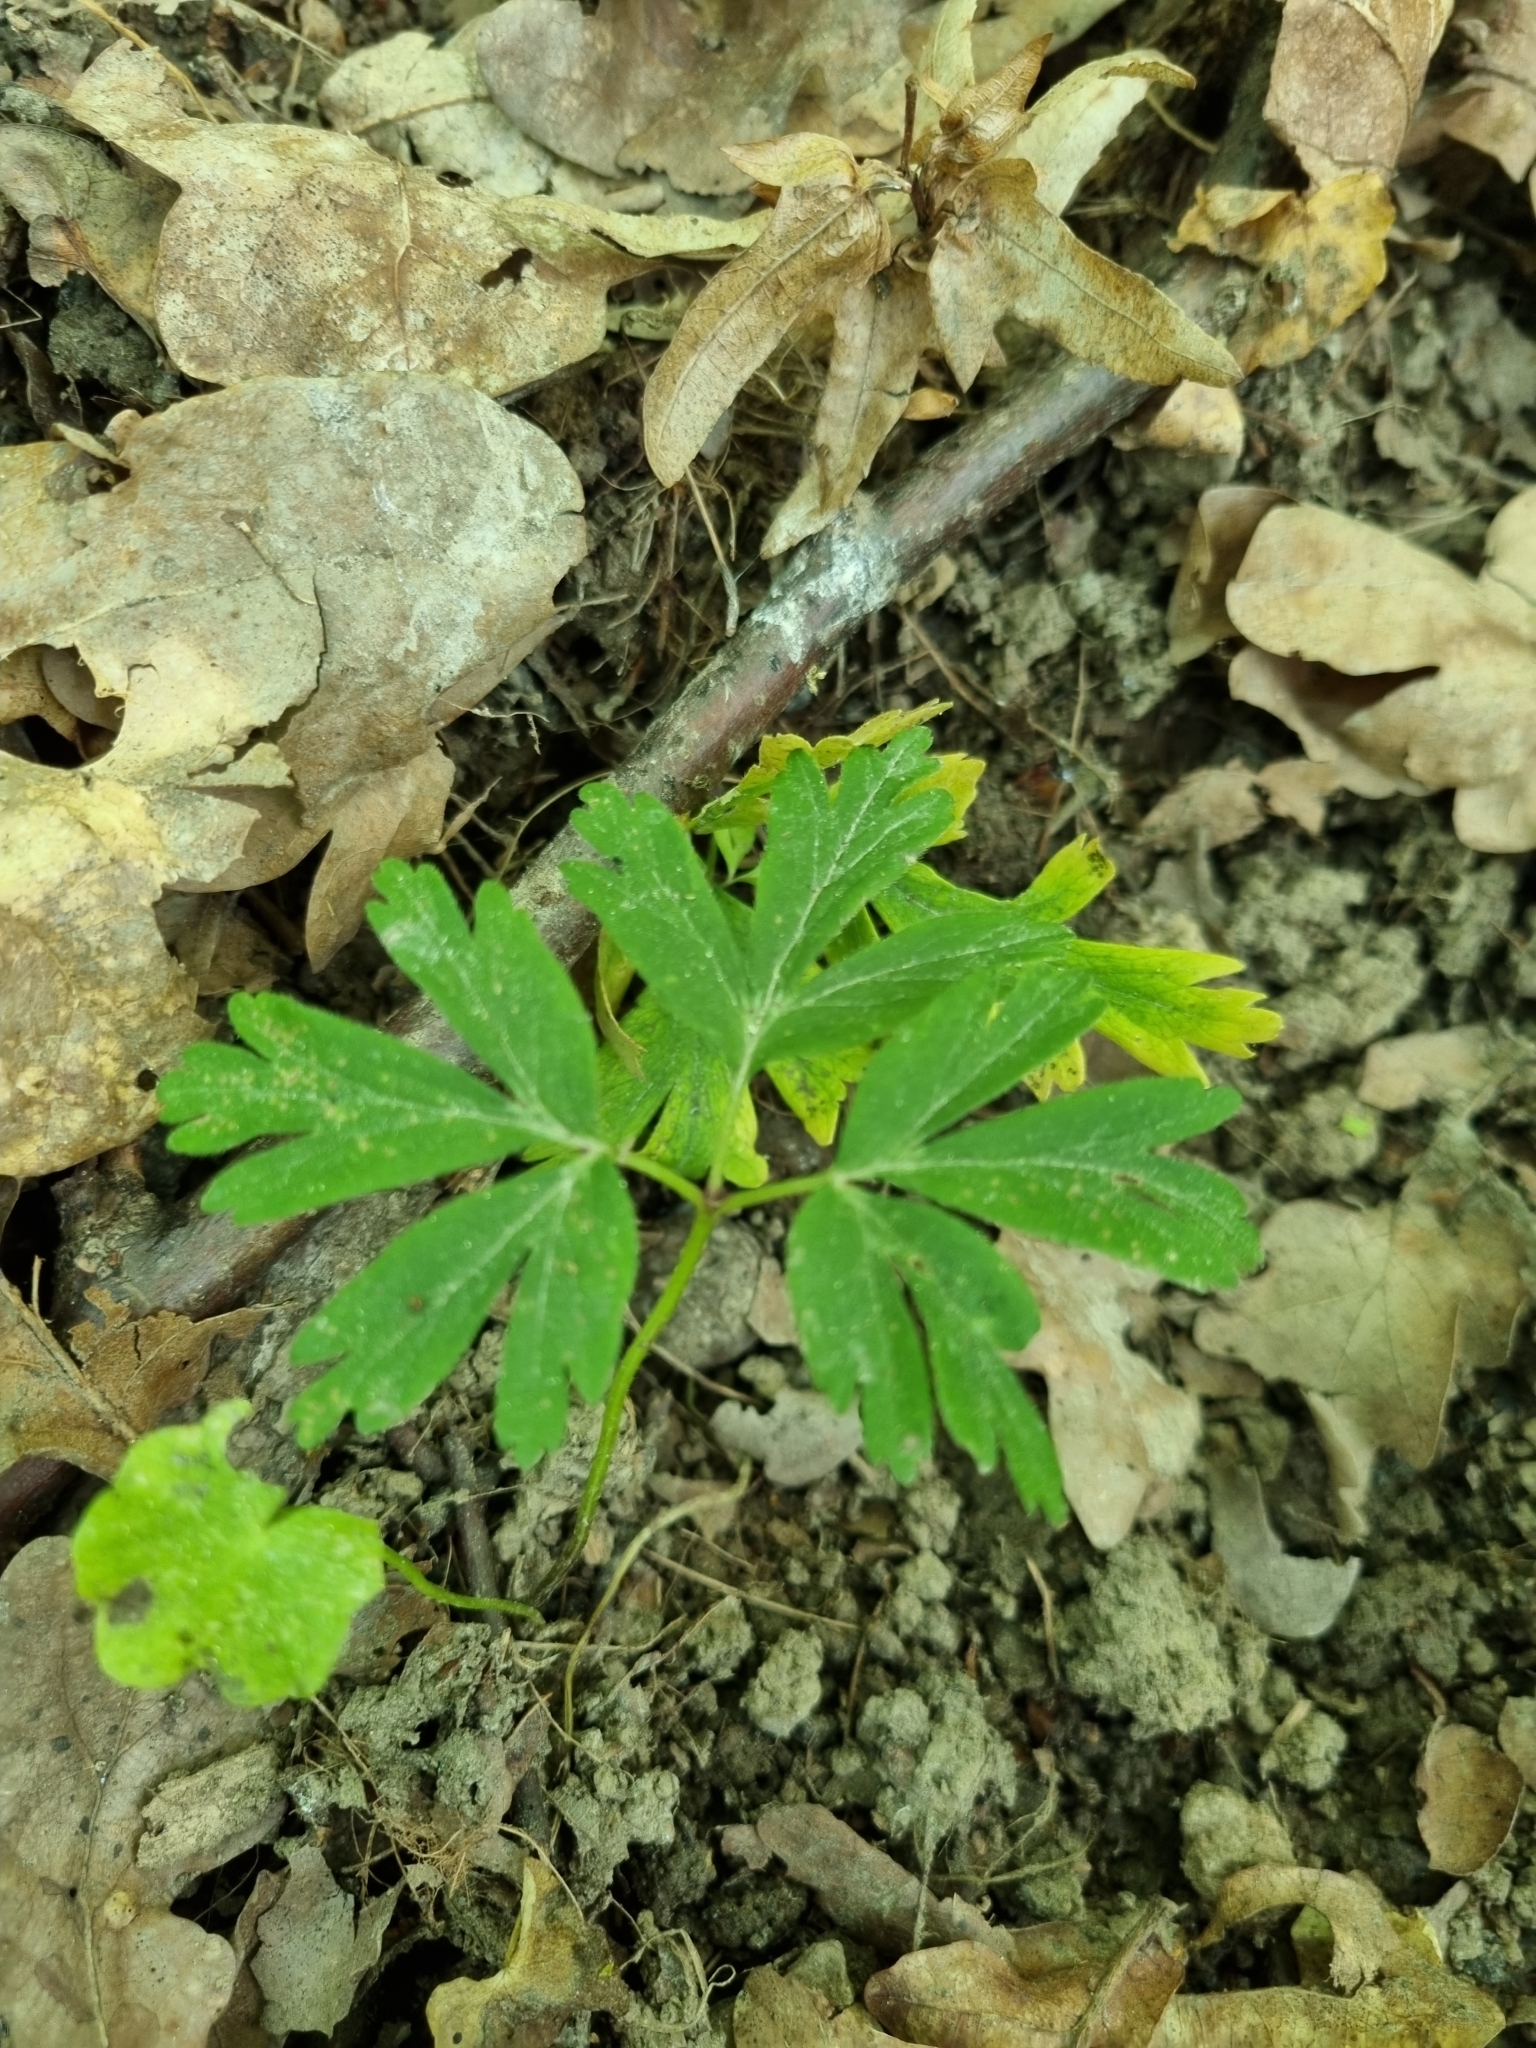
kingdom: Plantae
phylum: Tracheophyta
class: Magnoliopsida
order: Ranunculales
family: Ranunculaceae
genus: Anemone
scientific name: Anemone nemorosa
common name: Wood anemone
